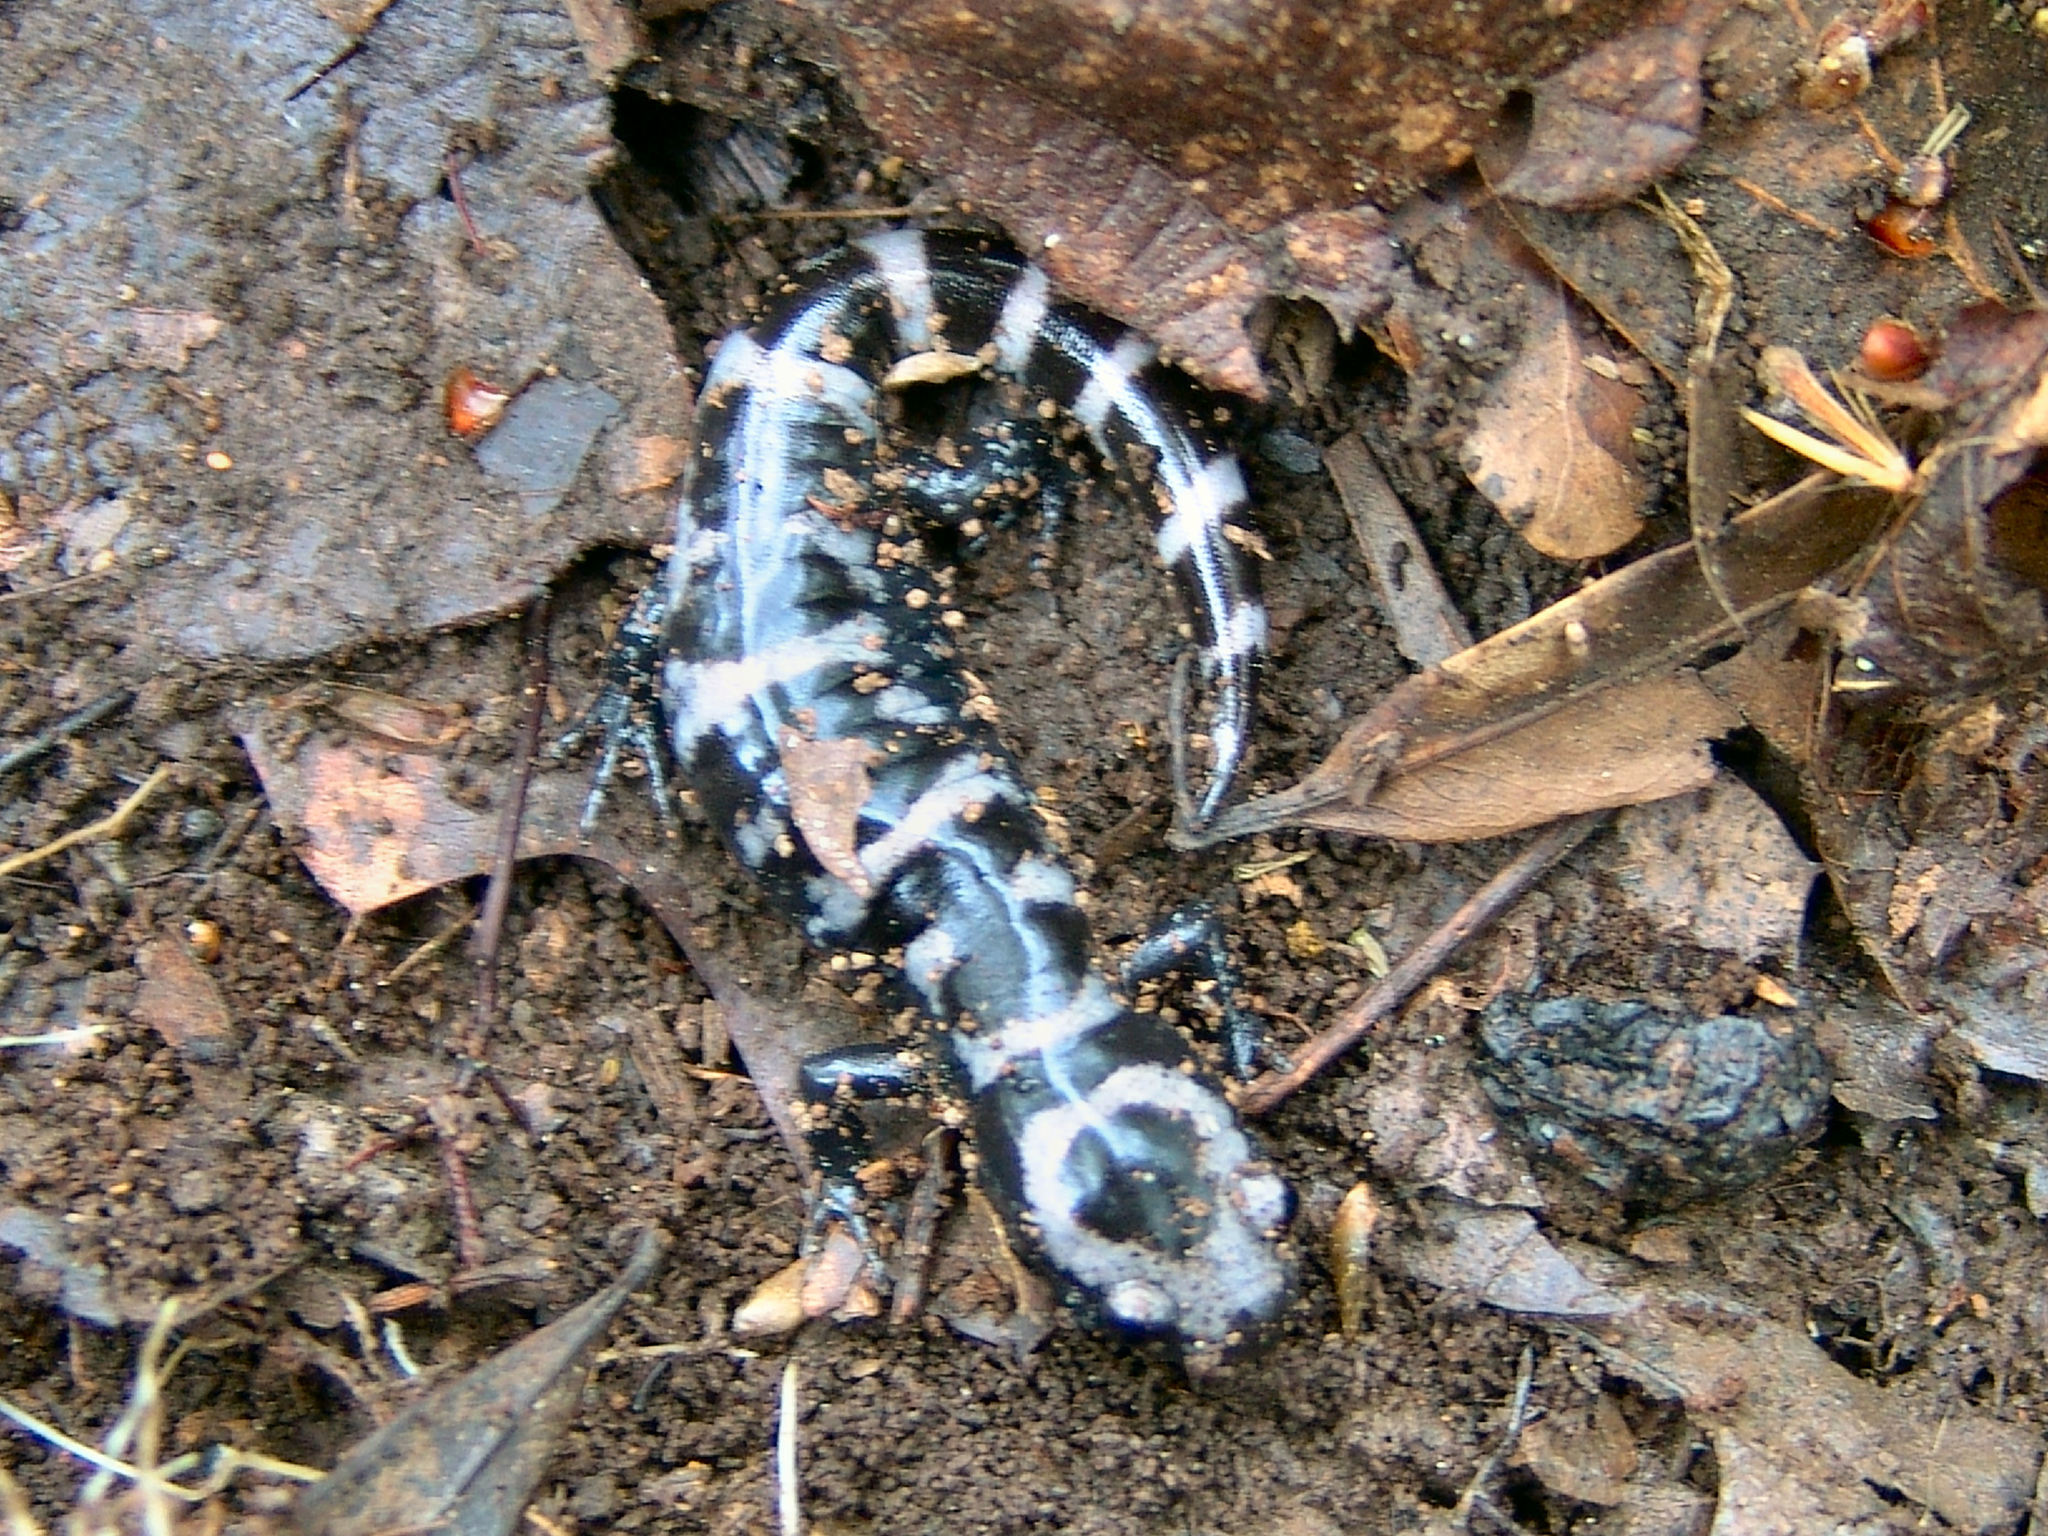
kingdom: Animalia
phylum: Chordata
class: Amphibia
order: Caudata
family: Ambystomatidae
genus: Ambystoma
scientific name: Ambystoma opacum
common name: Marbled salamander
